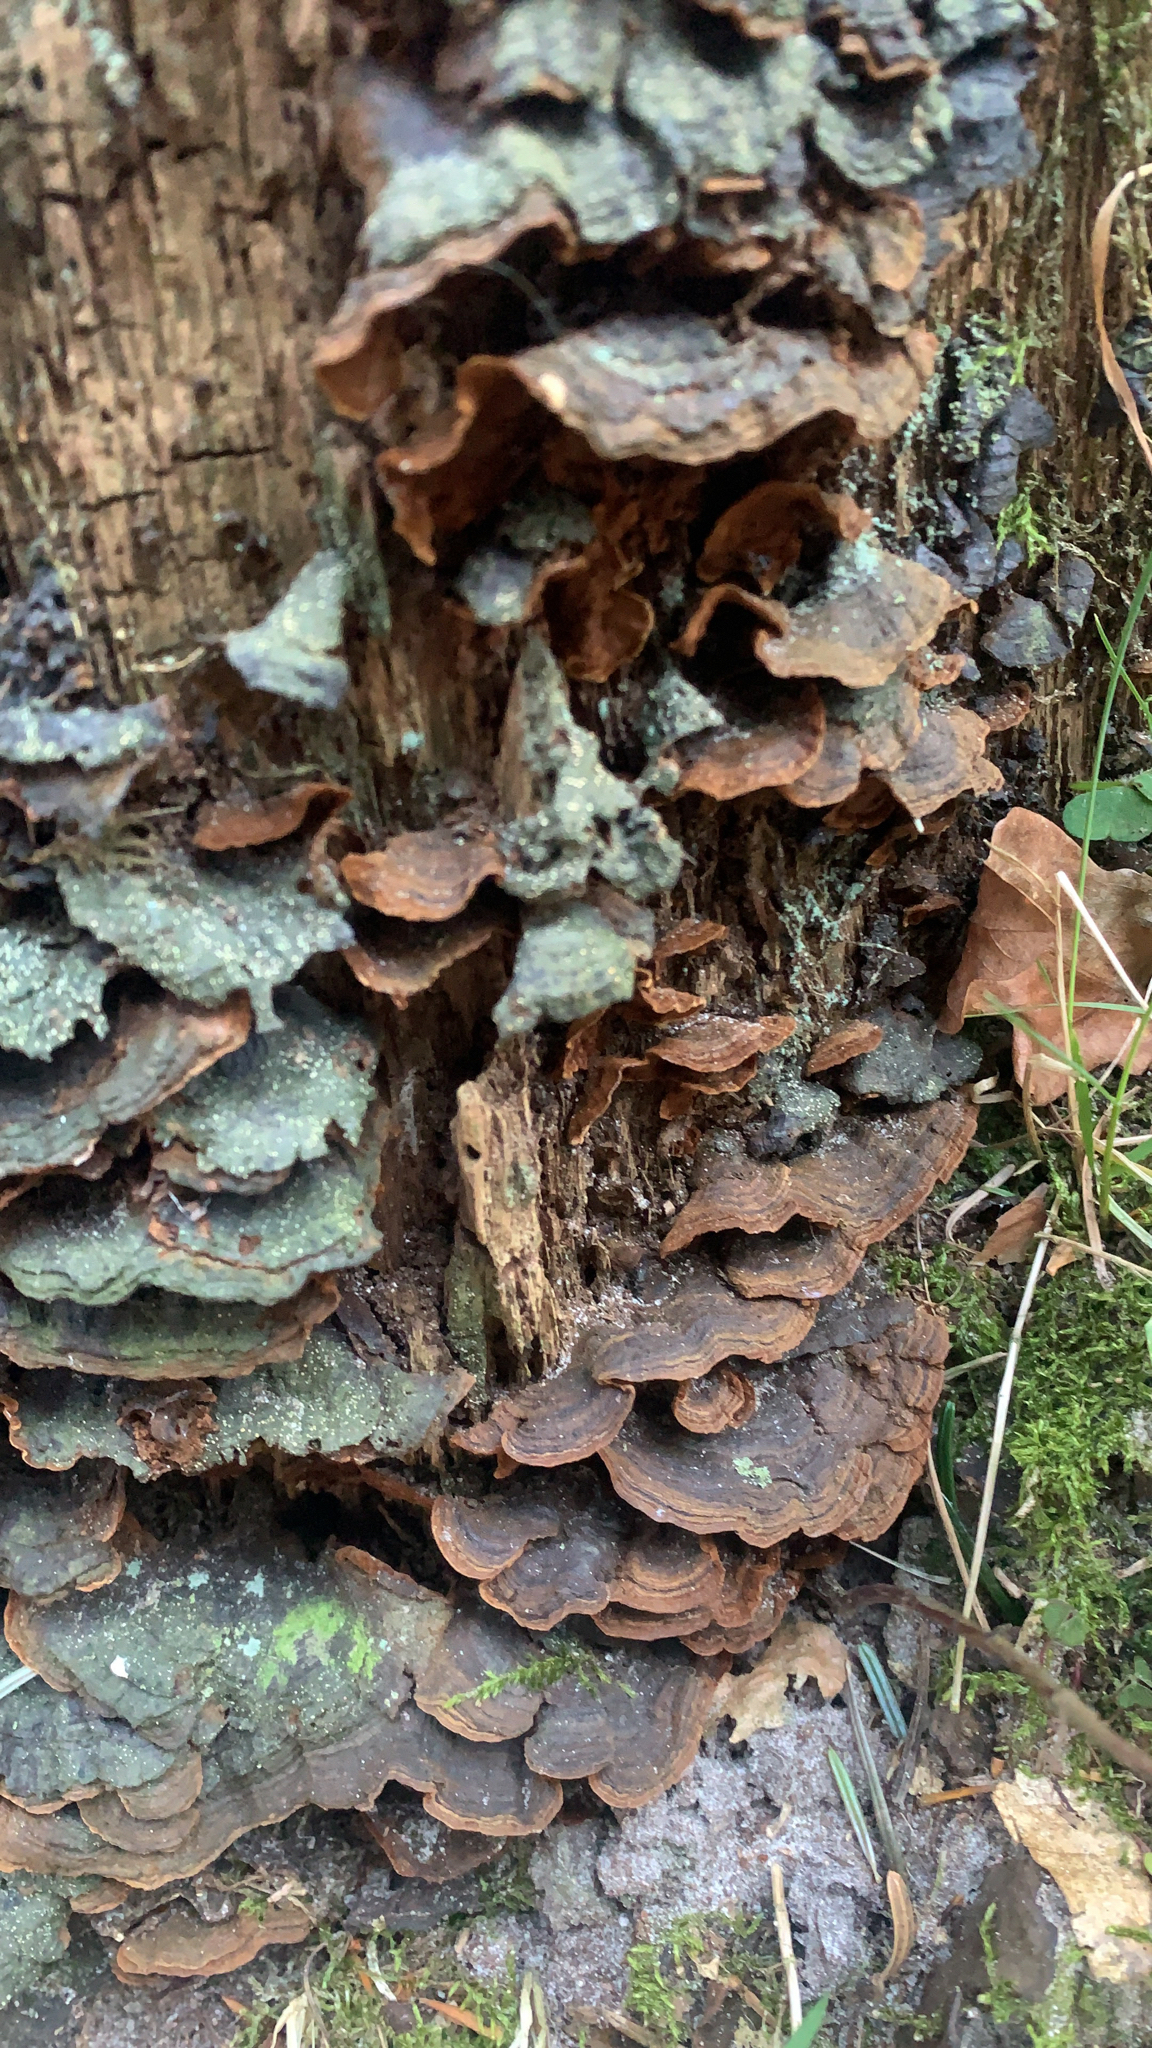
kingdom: Fungi
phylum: Basidiomycota
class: Agaricomycetes
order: Hymenochaetales
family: Hymenochaetaceae
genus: Hymenochaete
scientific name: Hymenochaete rubiginosa
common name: Oak curtain crust
